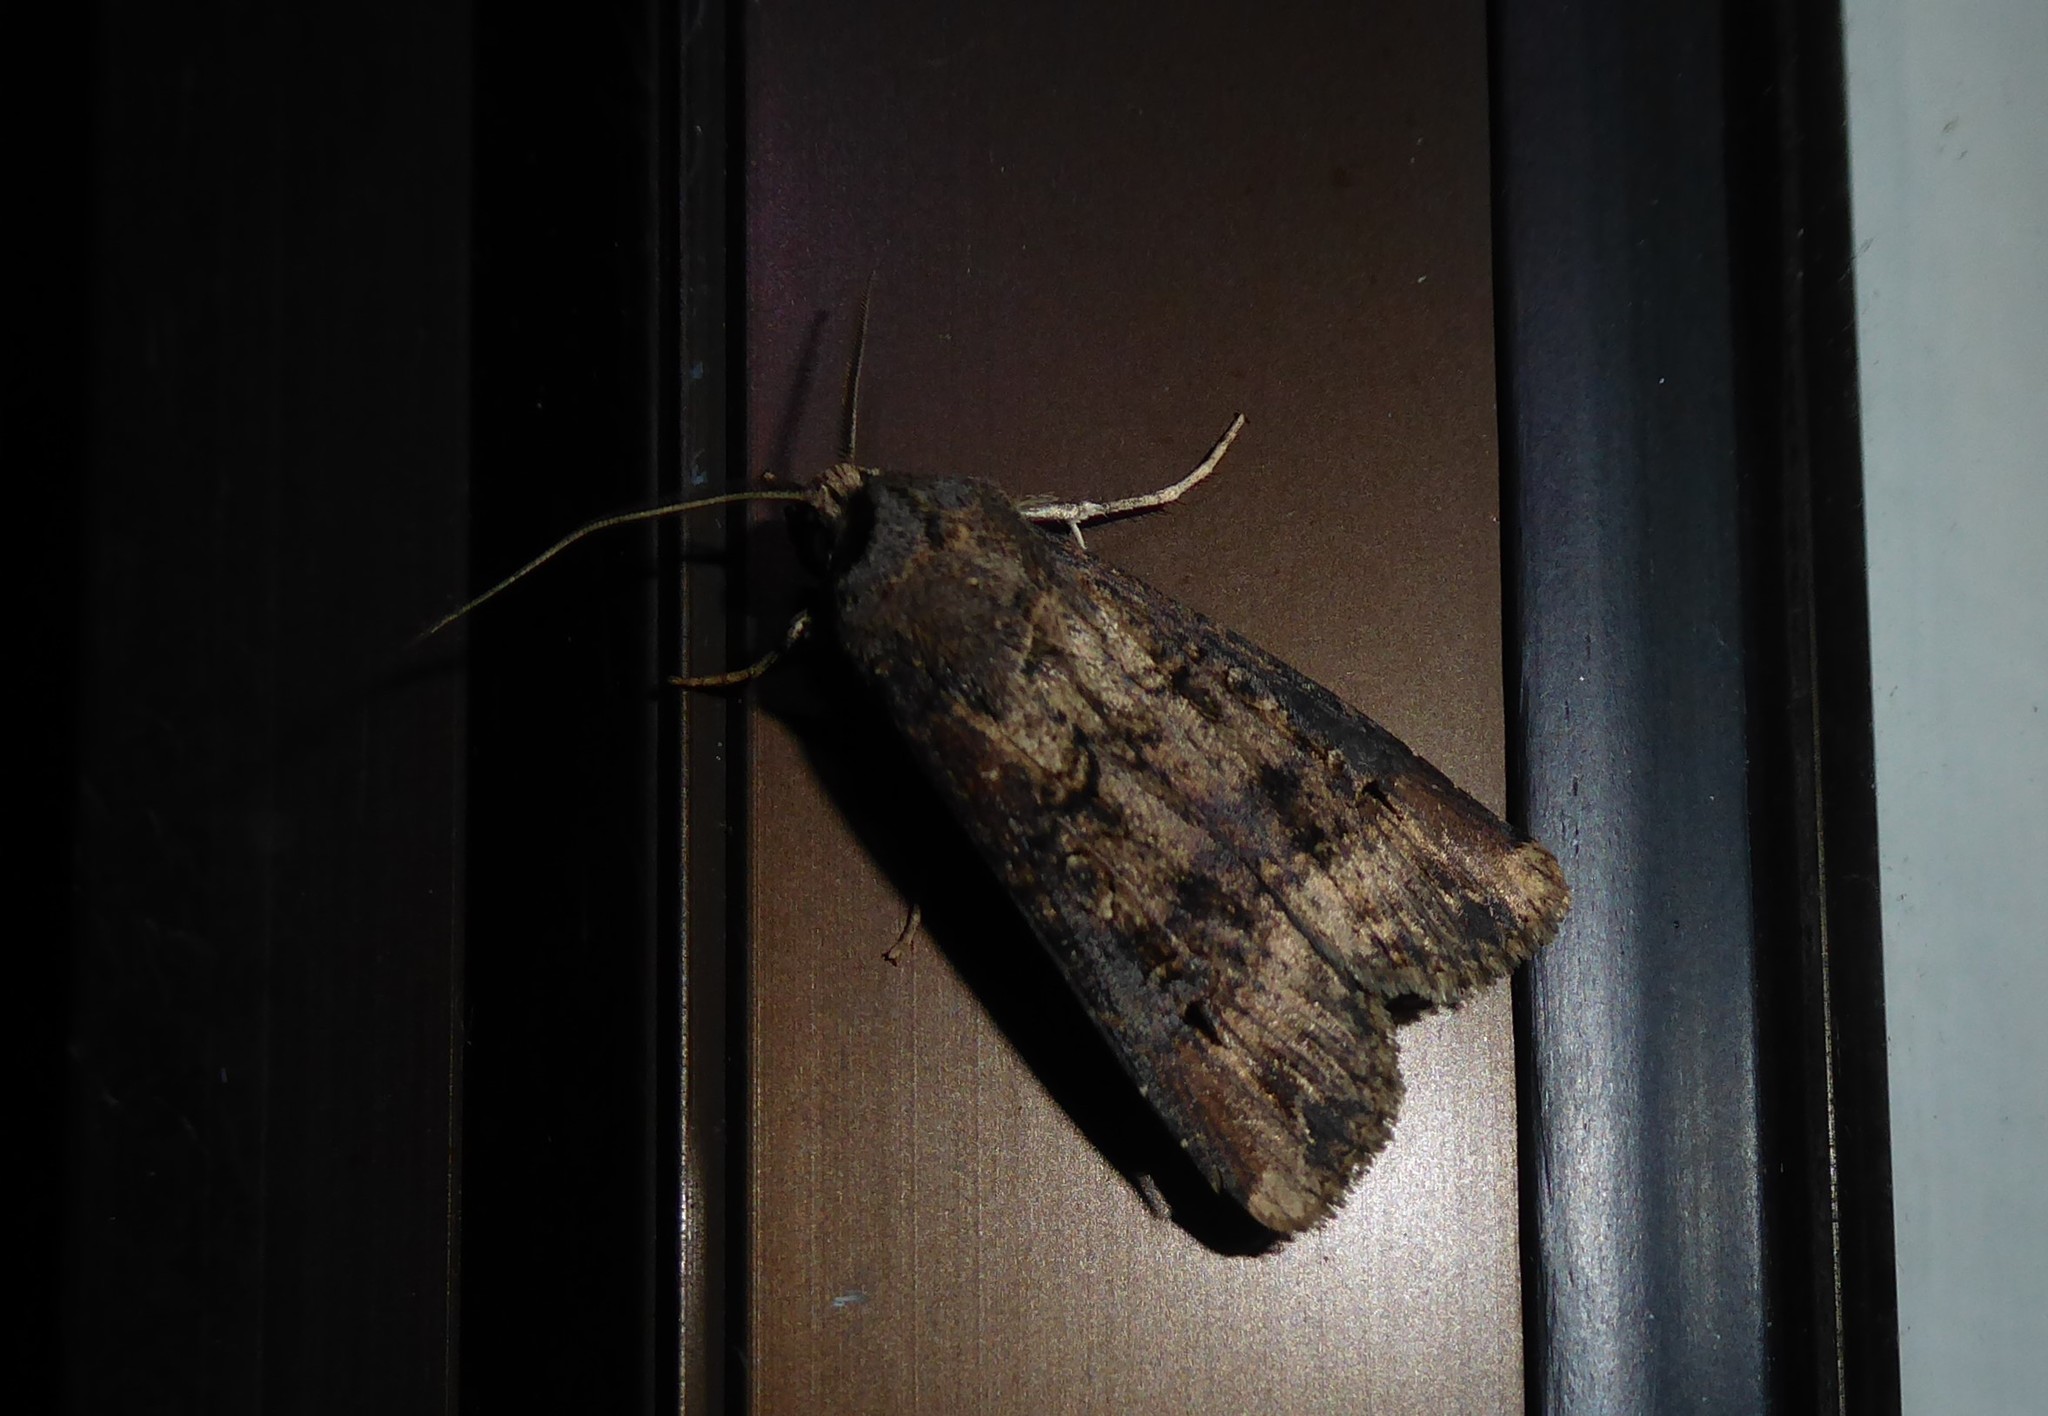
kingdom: Animalia
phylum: Arthropoda
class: Insecta
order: Lepidoptera
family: Noctuidae
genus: Agrotis
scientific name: Agrotis ipsilon
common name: Dark sword-grass
